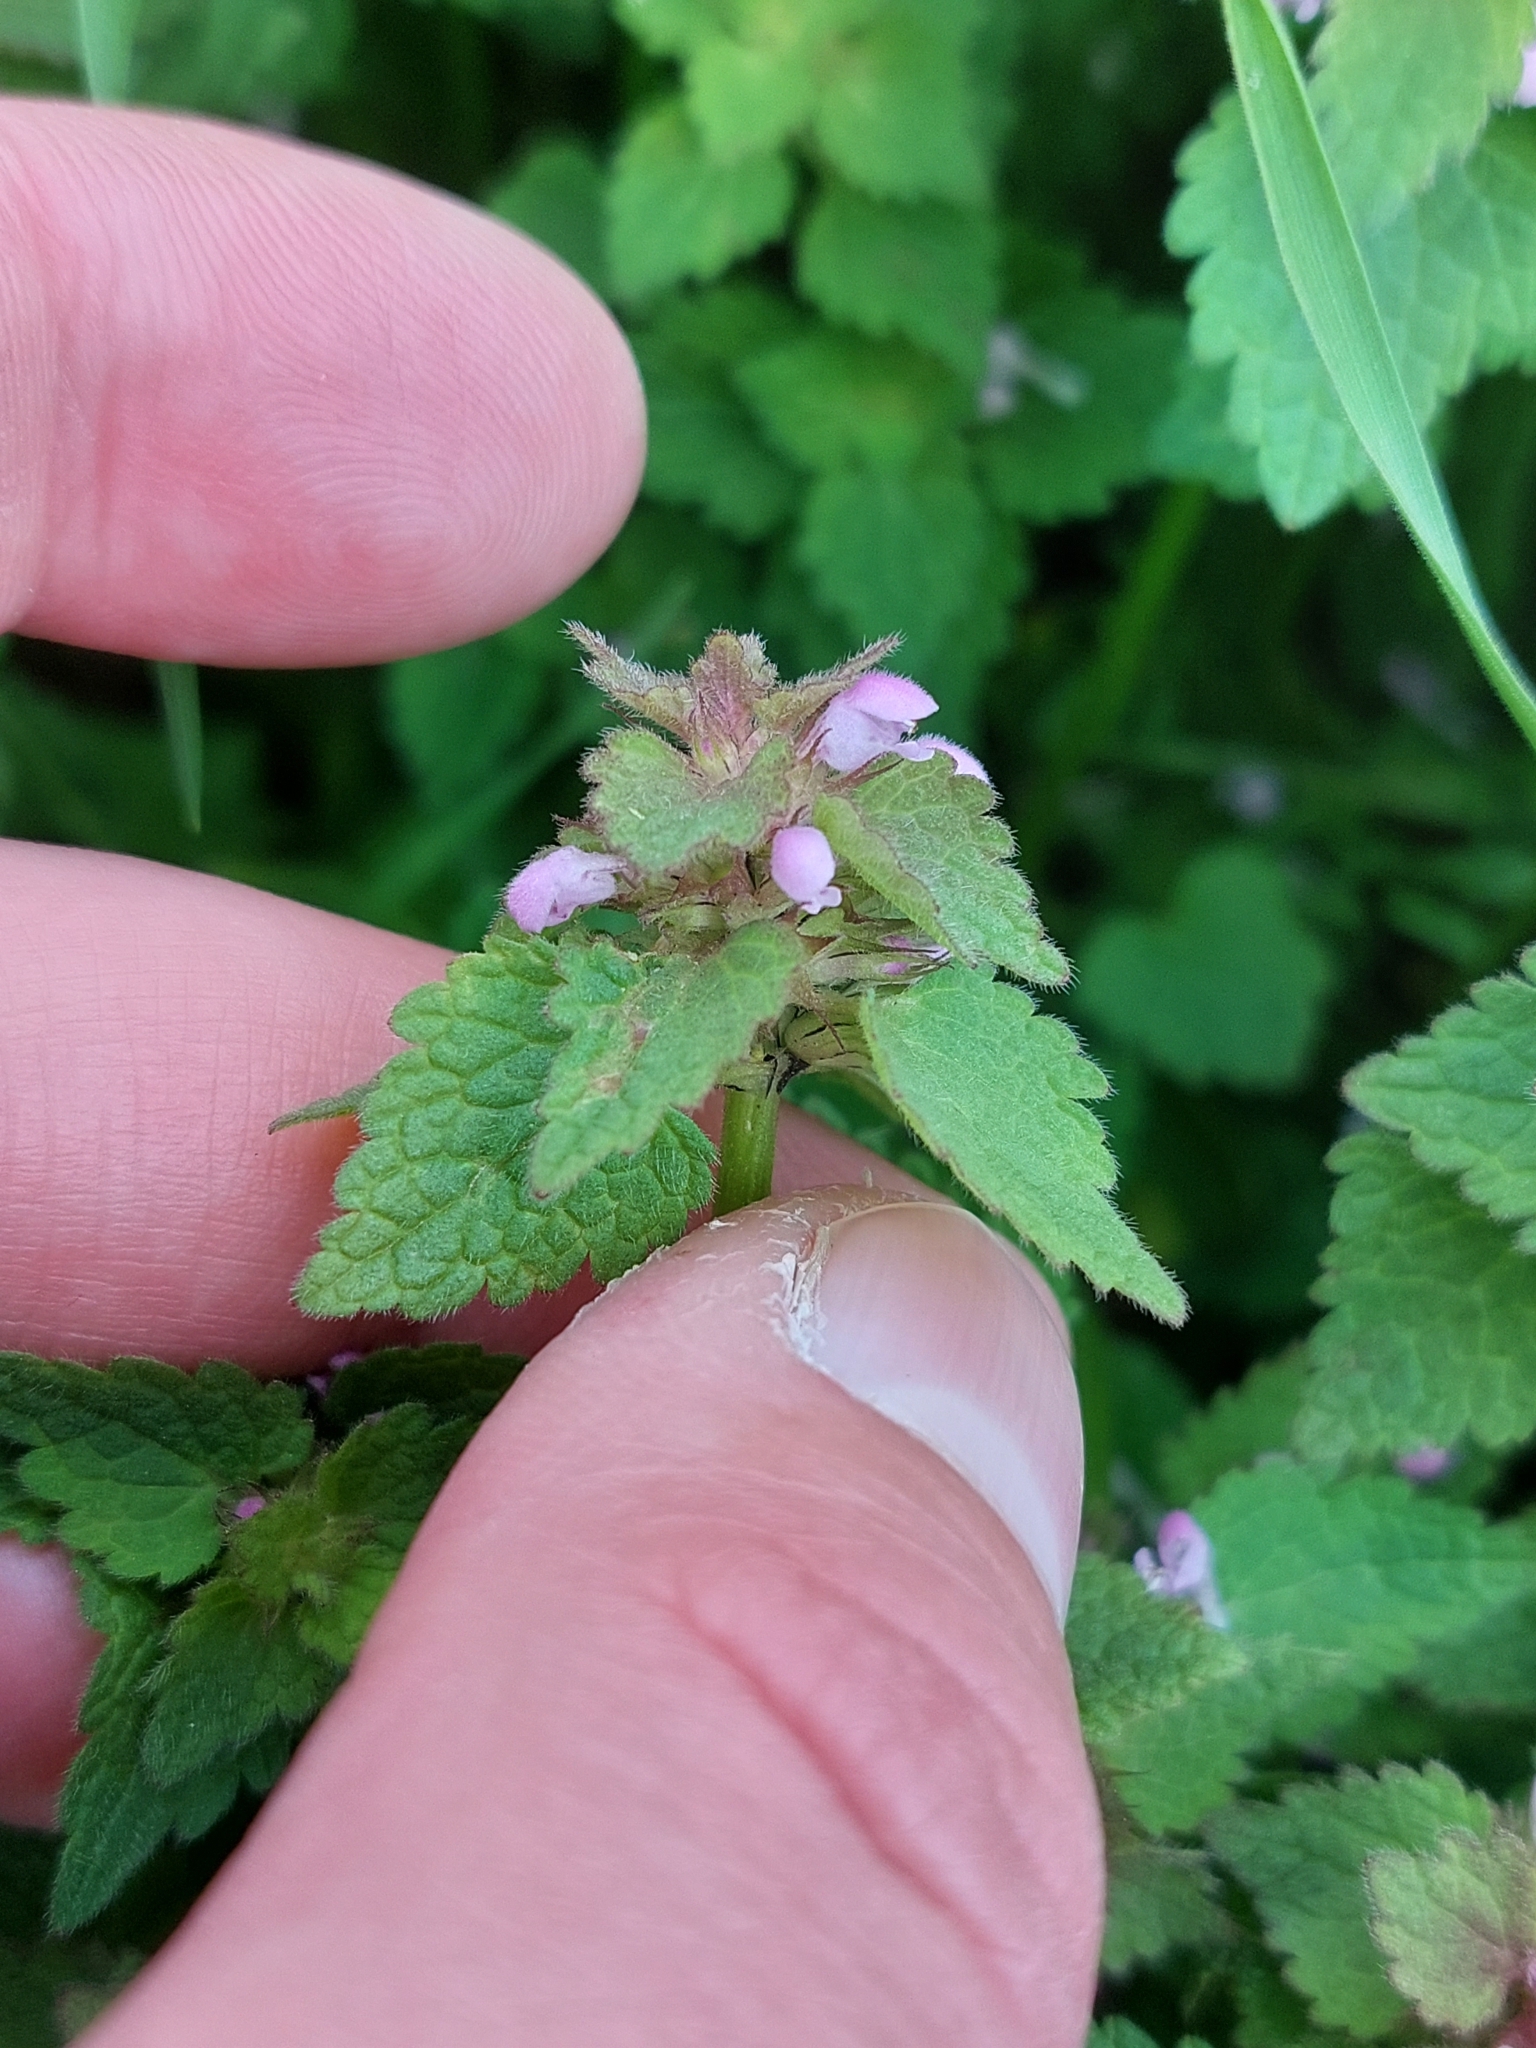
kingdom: Plantae
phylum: Tracheophyta
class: Magnoliopsida
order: Lamiales
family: Lamiaceae
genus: Lamium
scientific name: Lamium purpureum
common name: Red dead-nettle
